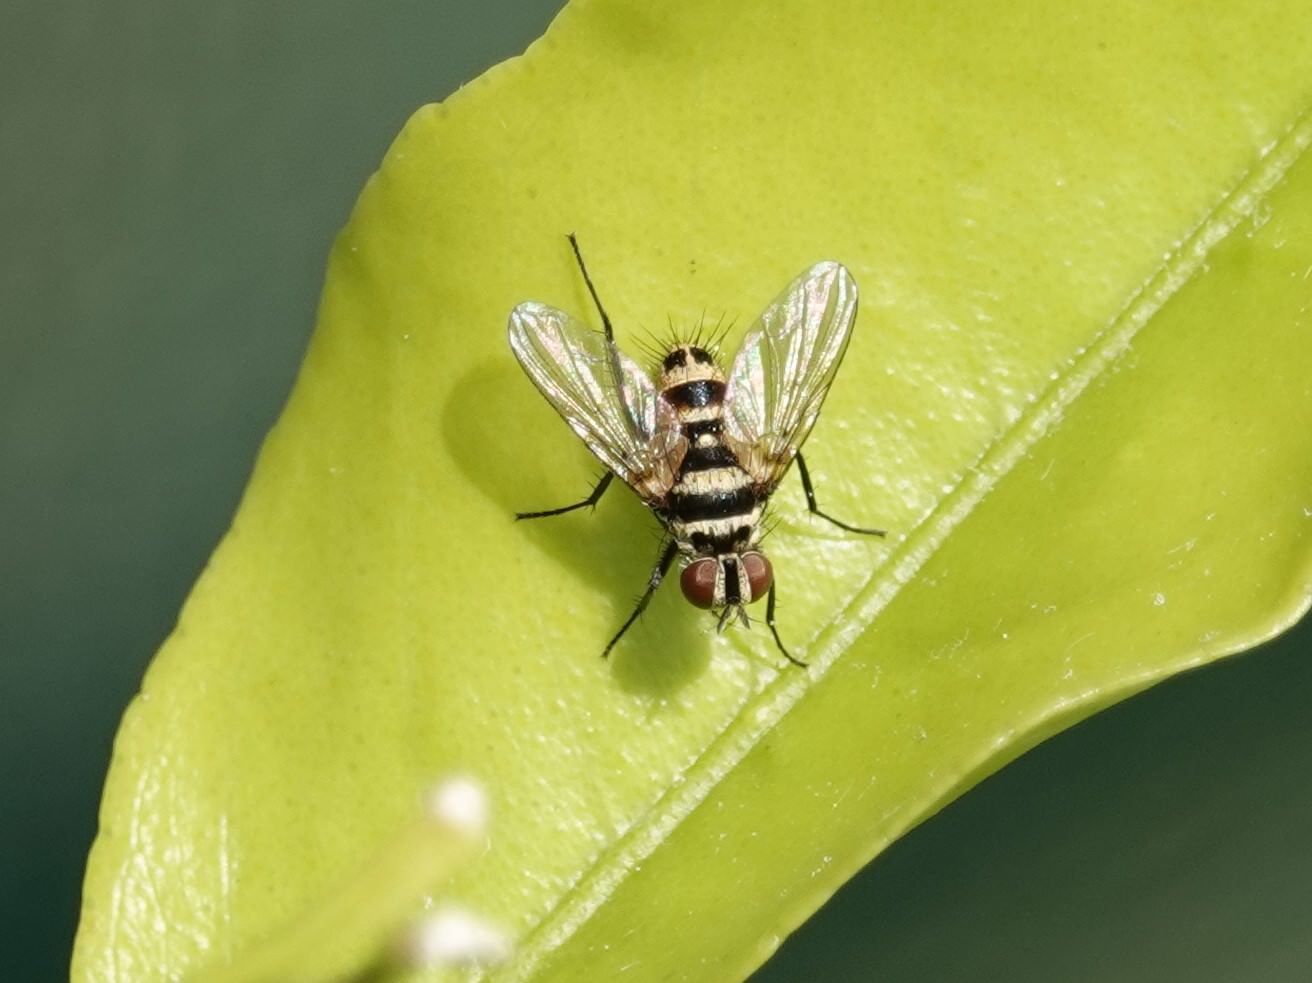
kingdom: Animalia
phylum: Arthropoda
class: Insecta
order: Diptera
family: Tachinidae
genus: Trigonospila
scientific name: Trigonospila brevifacies
